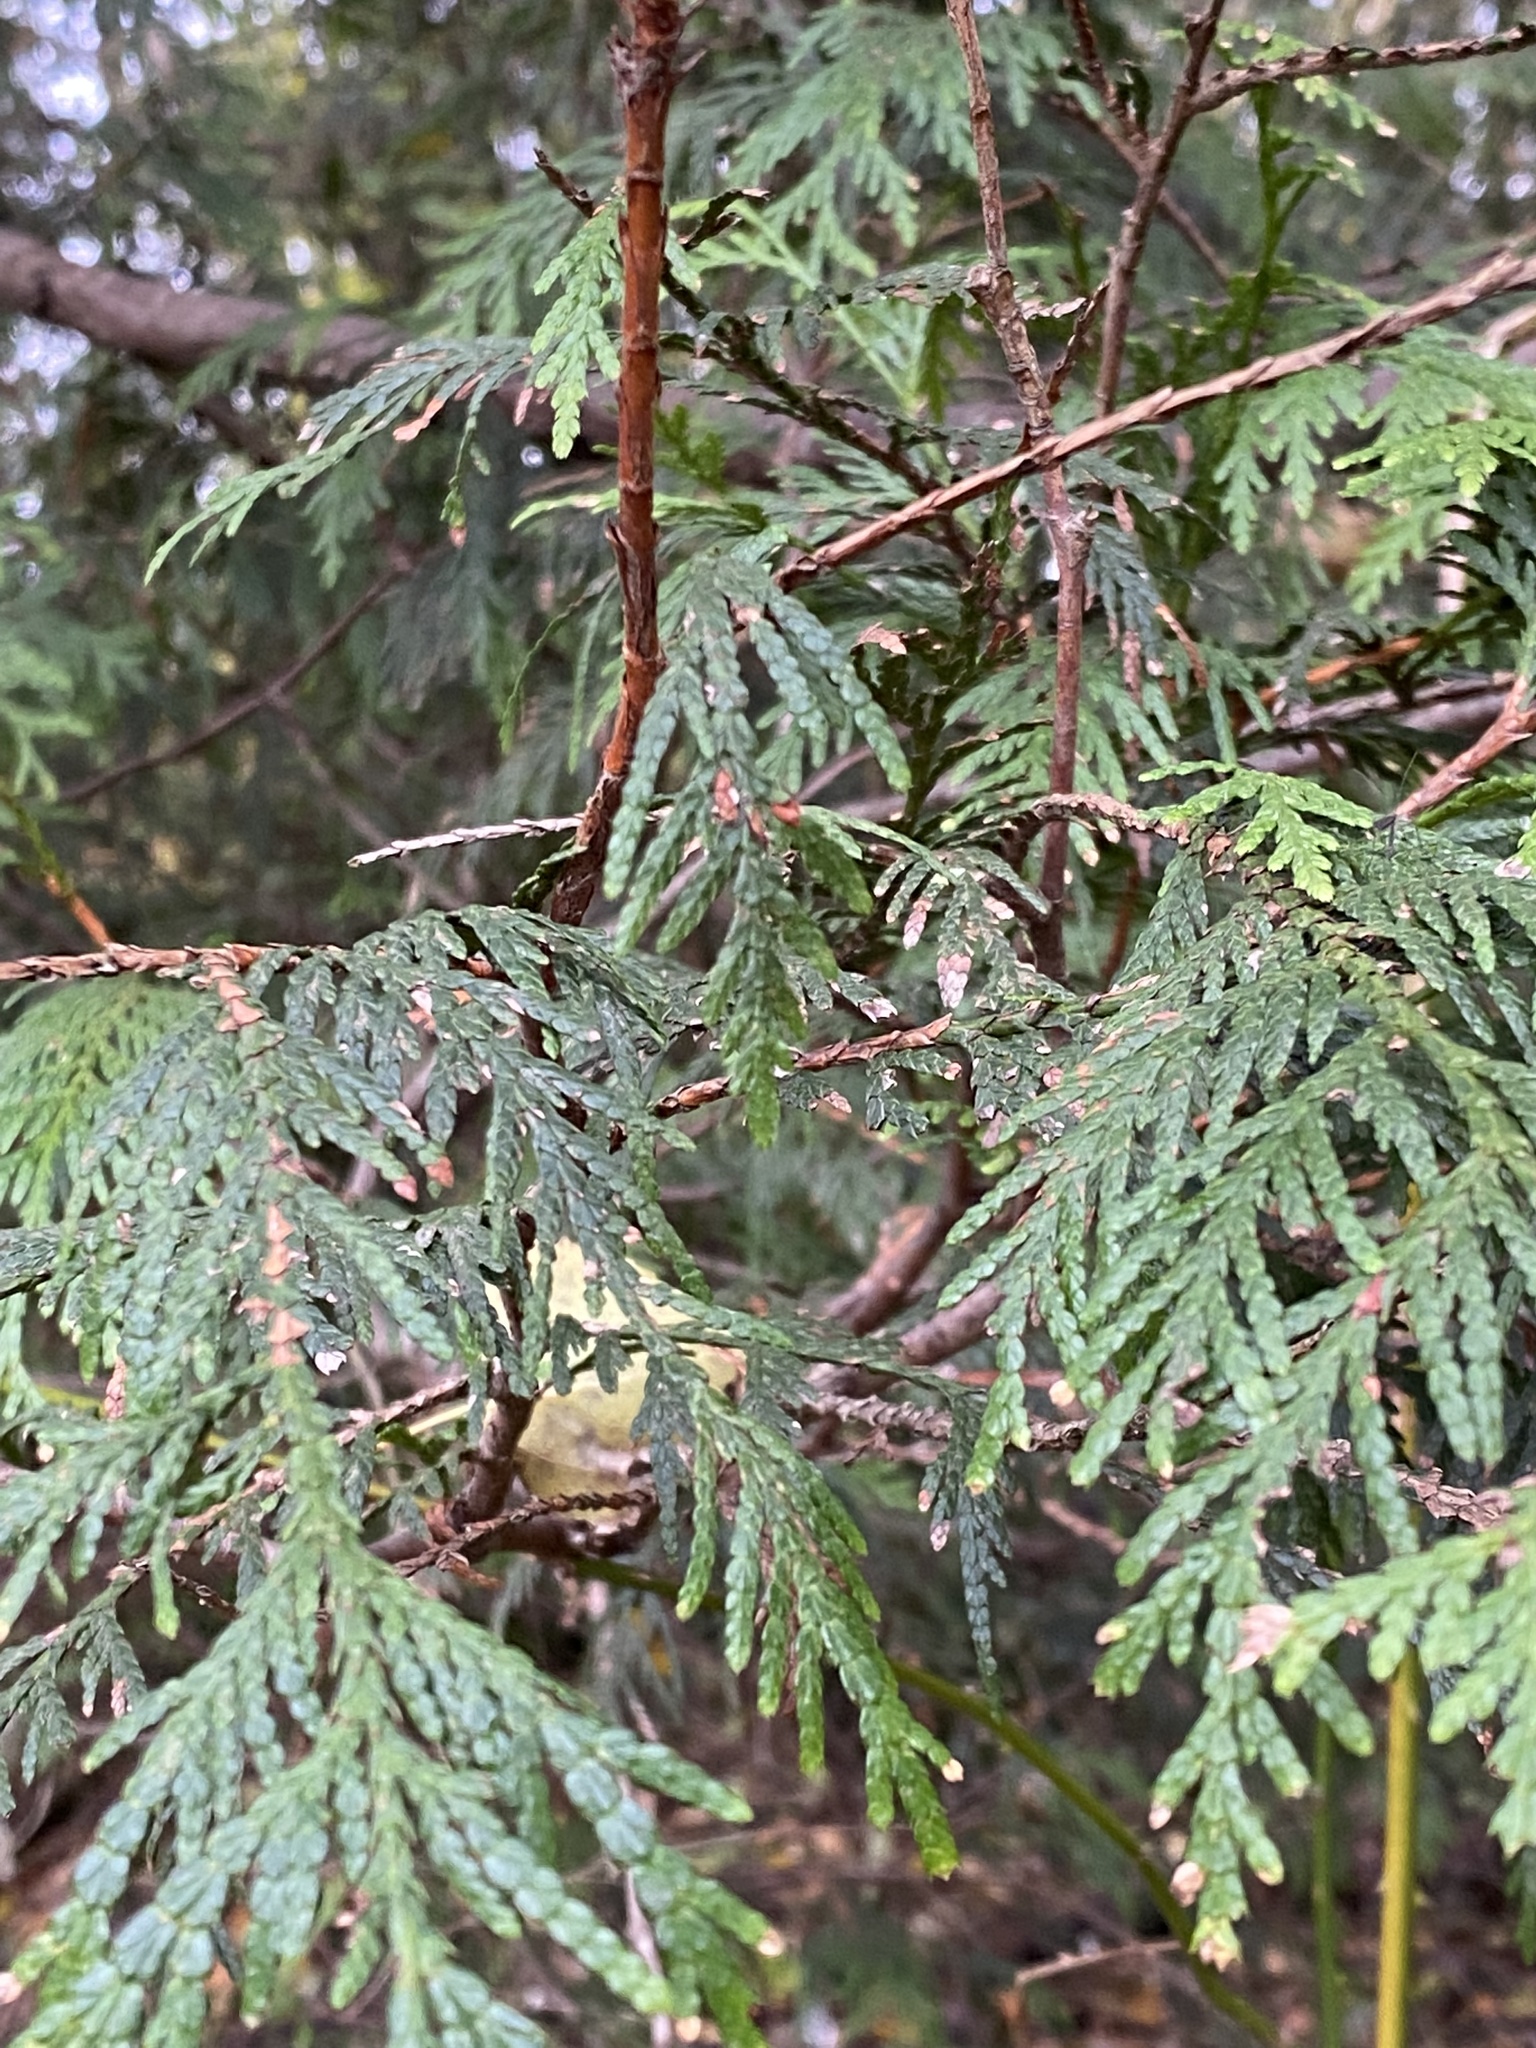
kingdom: Plantae
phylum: Tracheophyta
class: Pinopsida
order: Pinales
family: Cupressaceae
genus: Thuja
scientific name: Thuja plicata
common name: Western red-cedar
